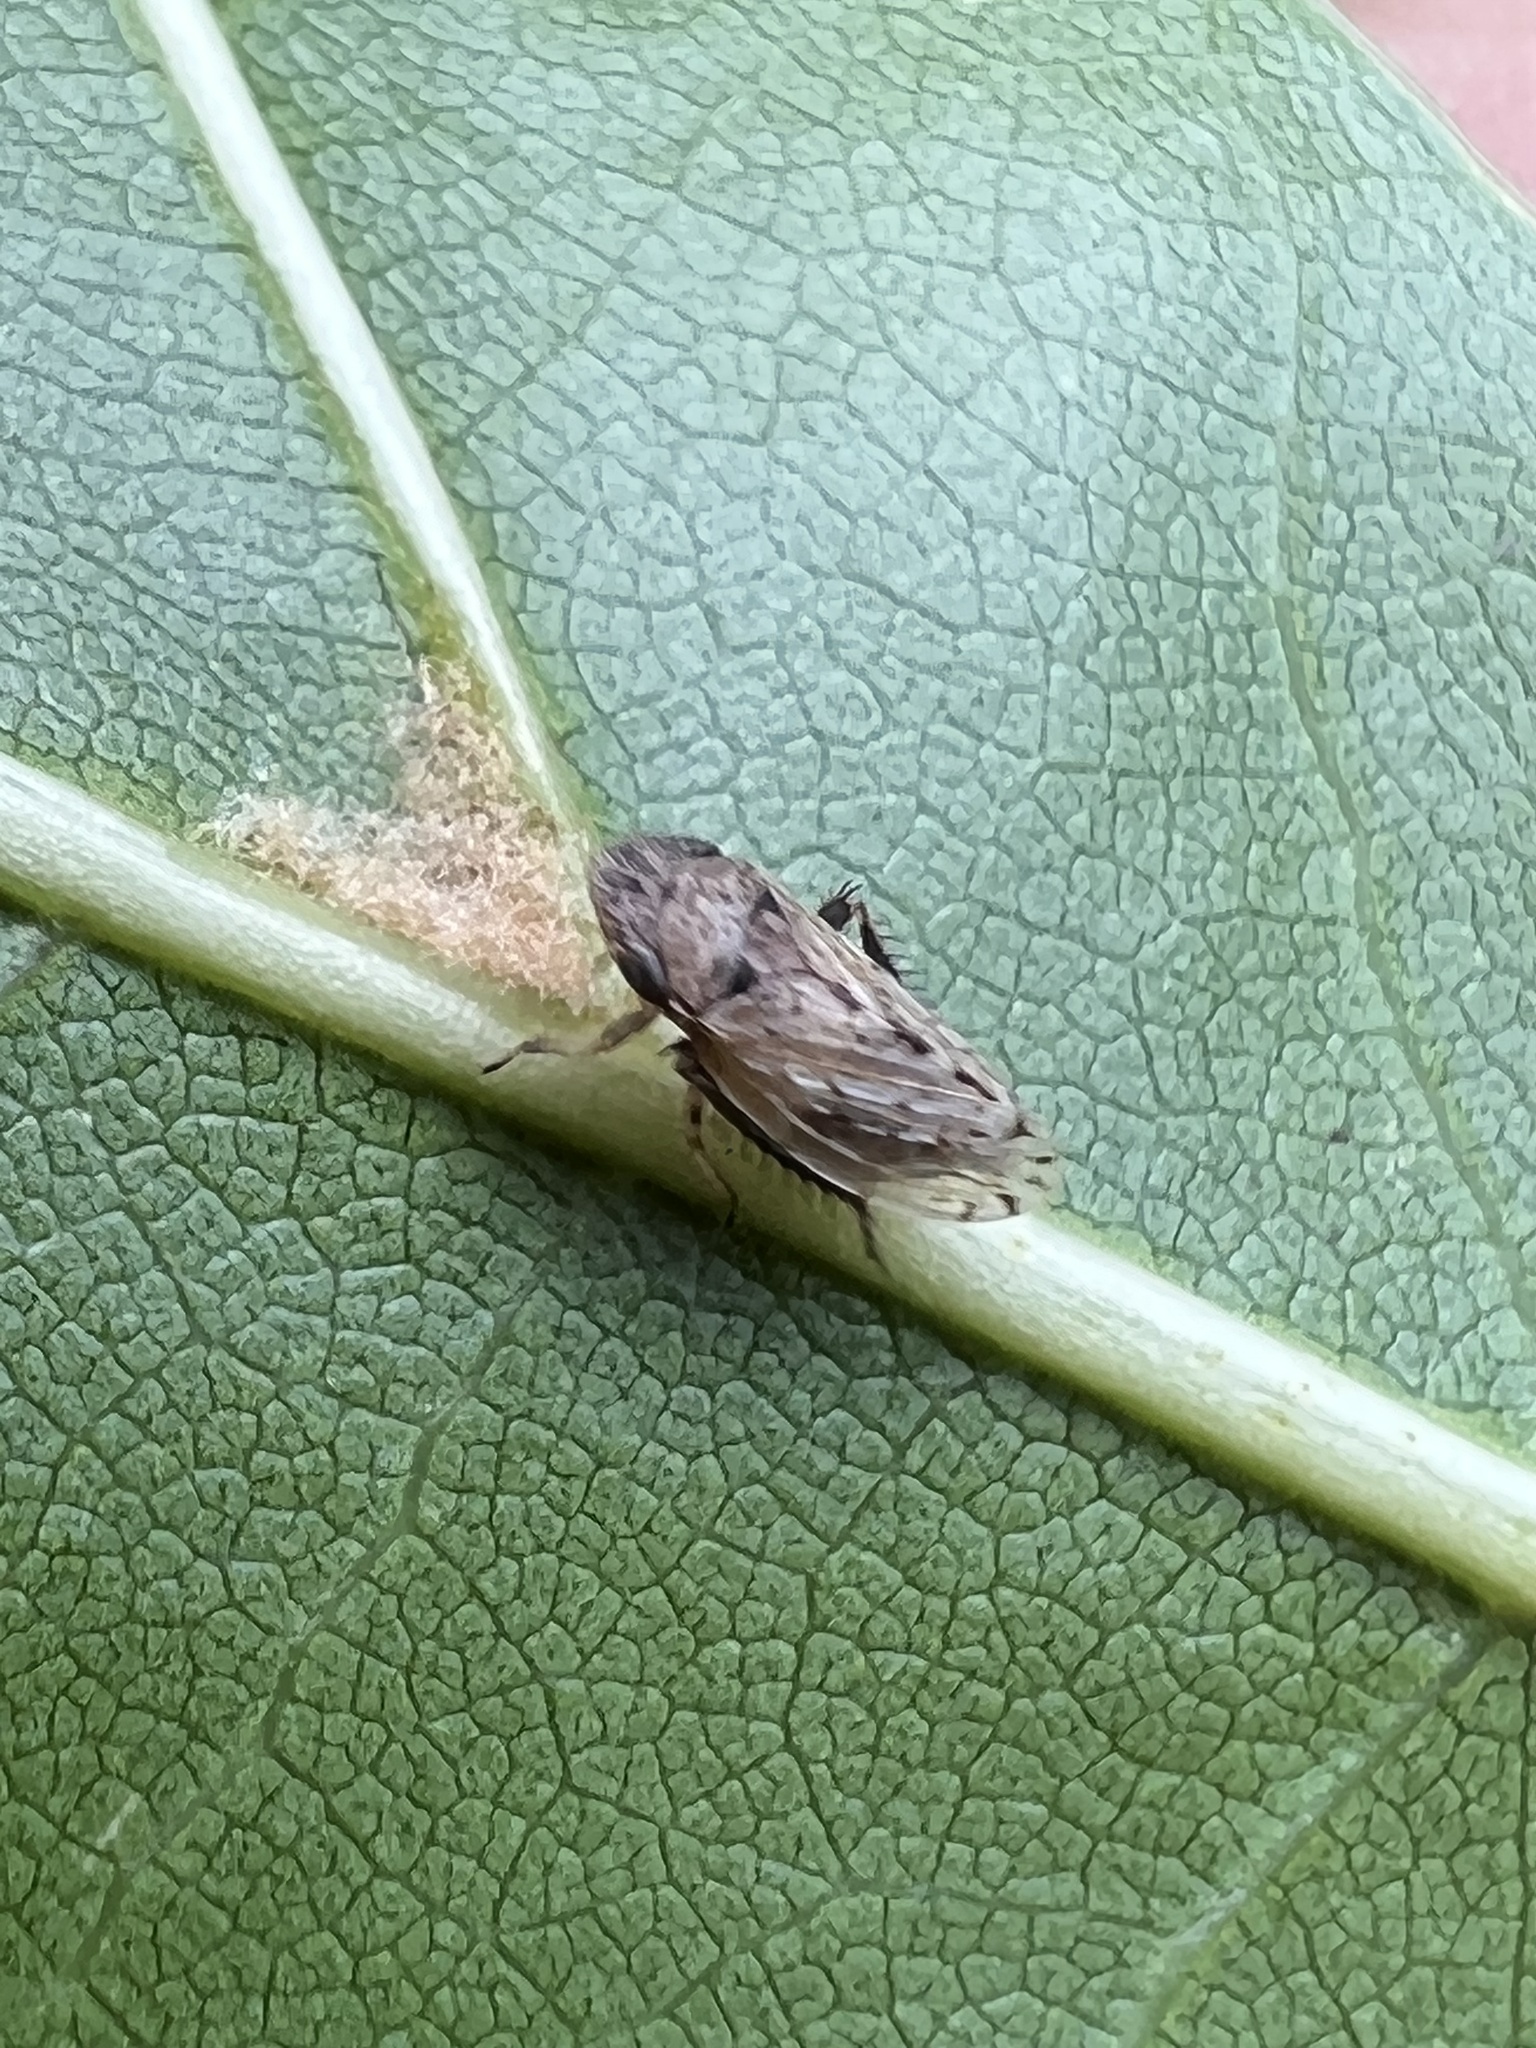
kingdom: Animalia
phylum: Arthropoda
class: Insecta
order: Hemiptera
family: Cicadellidae
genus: Anoscopus
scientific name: Anoscopus serratulae
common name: Leafhopper
